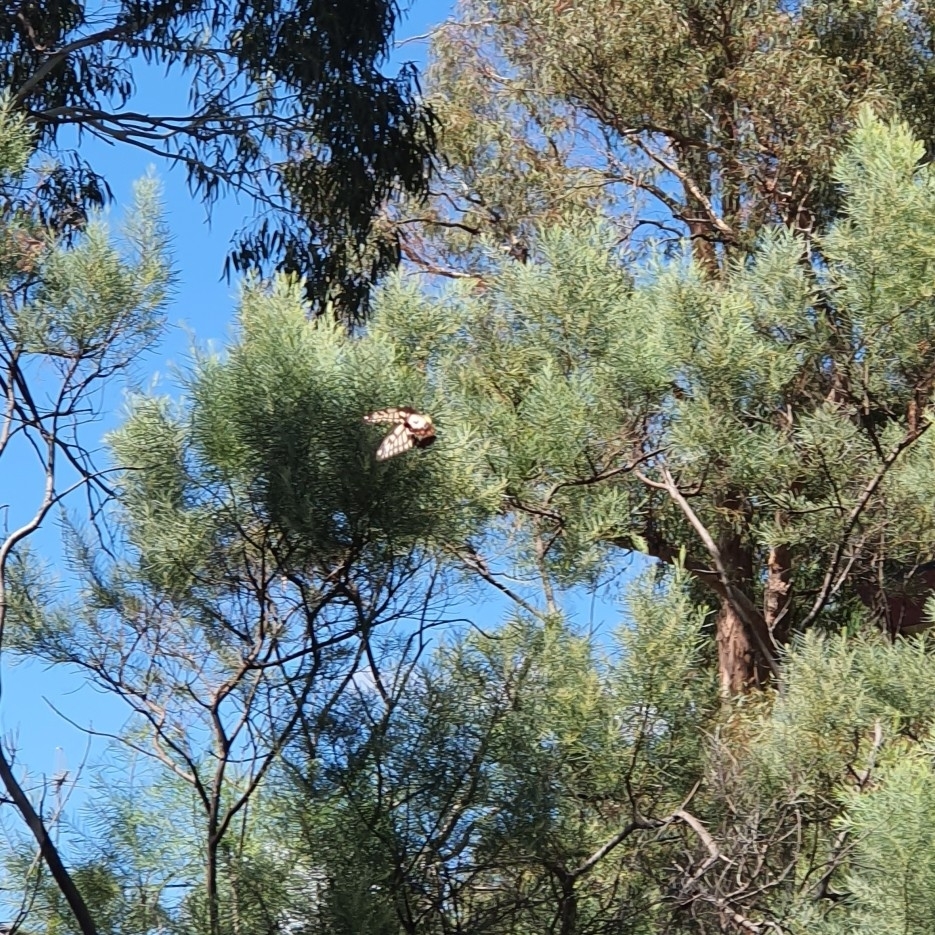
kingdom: Animalia
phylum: Arthropoda
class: Insecta
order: Lepidoptera
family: Papilionidae
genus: Papilio
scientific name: Papilio anactus
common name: Dingy swallowtail
